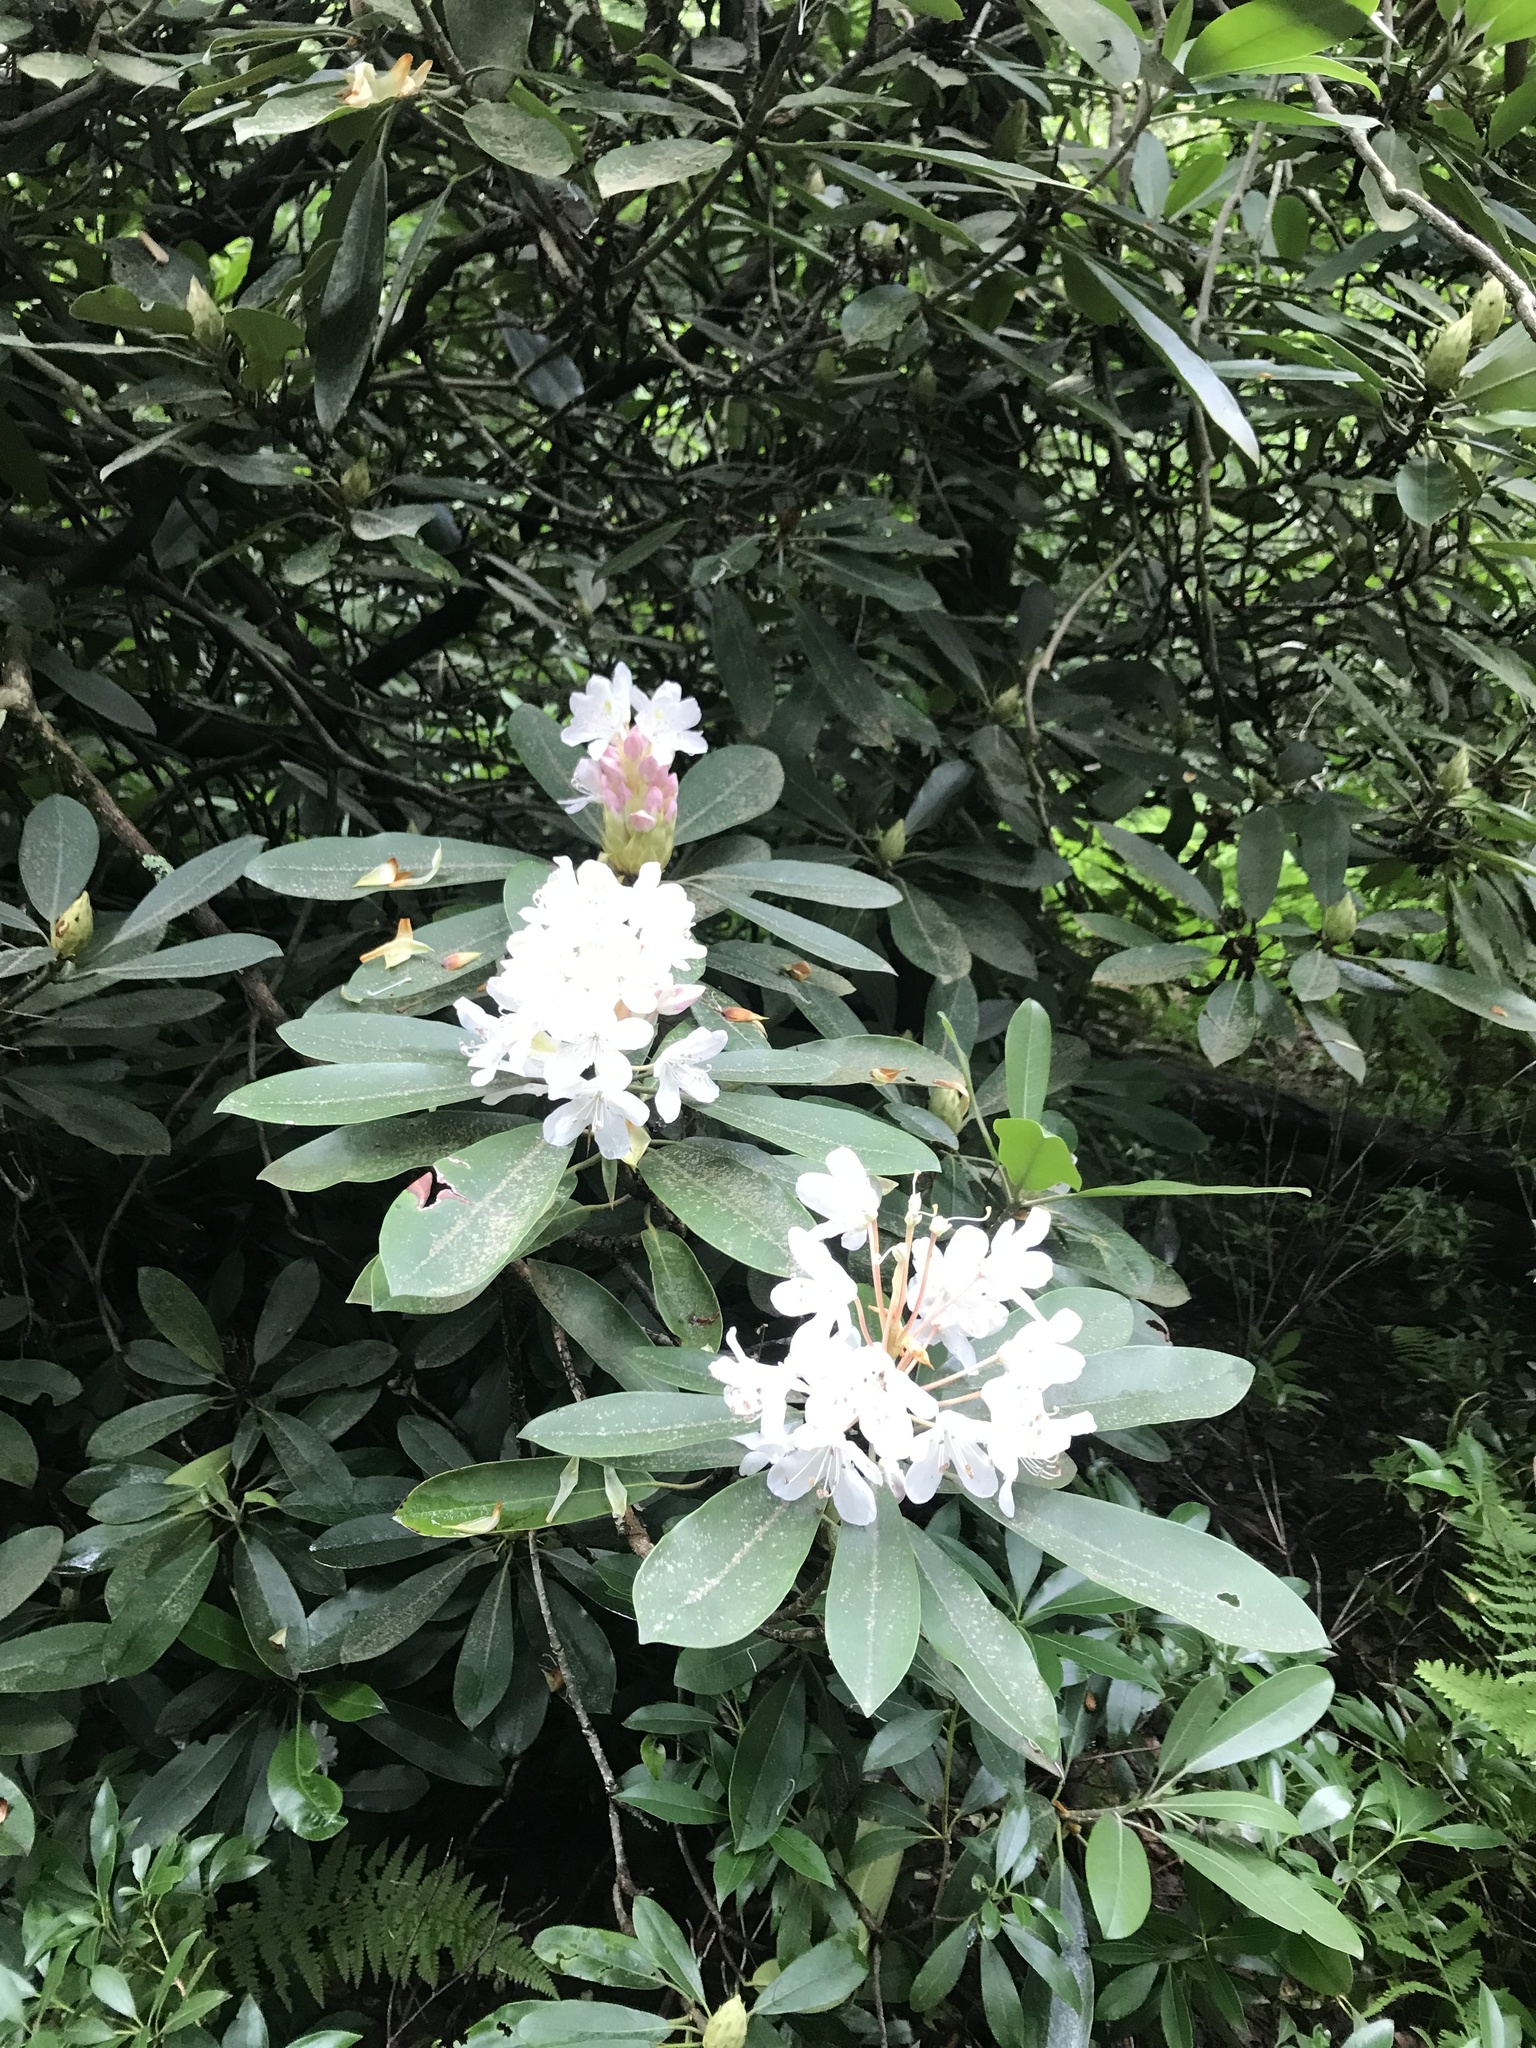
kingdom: Plantae
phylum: Tracheophyta
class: Magnoliopsida
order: Ericales
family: Ericaceae
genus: Rhododendron
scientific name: Rhododendron maximum
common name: Great rhododendron
